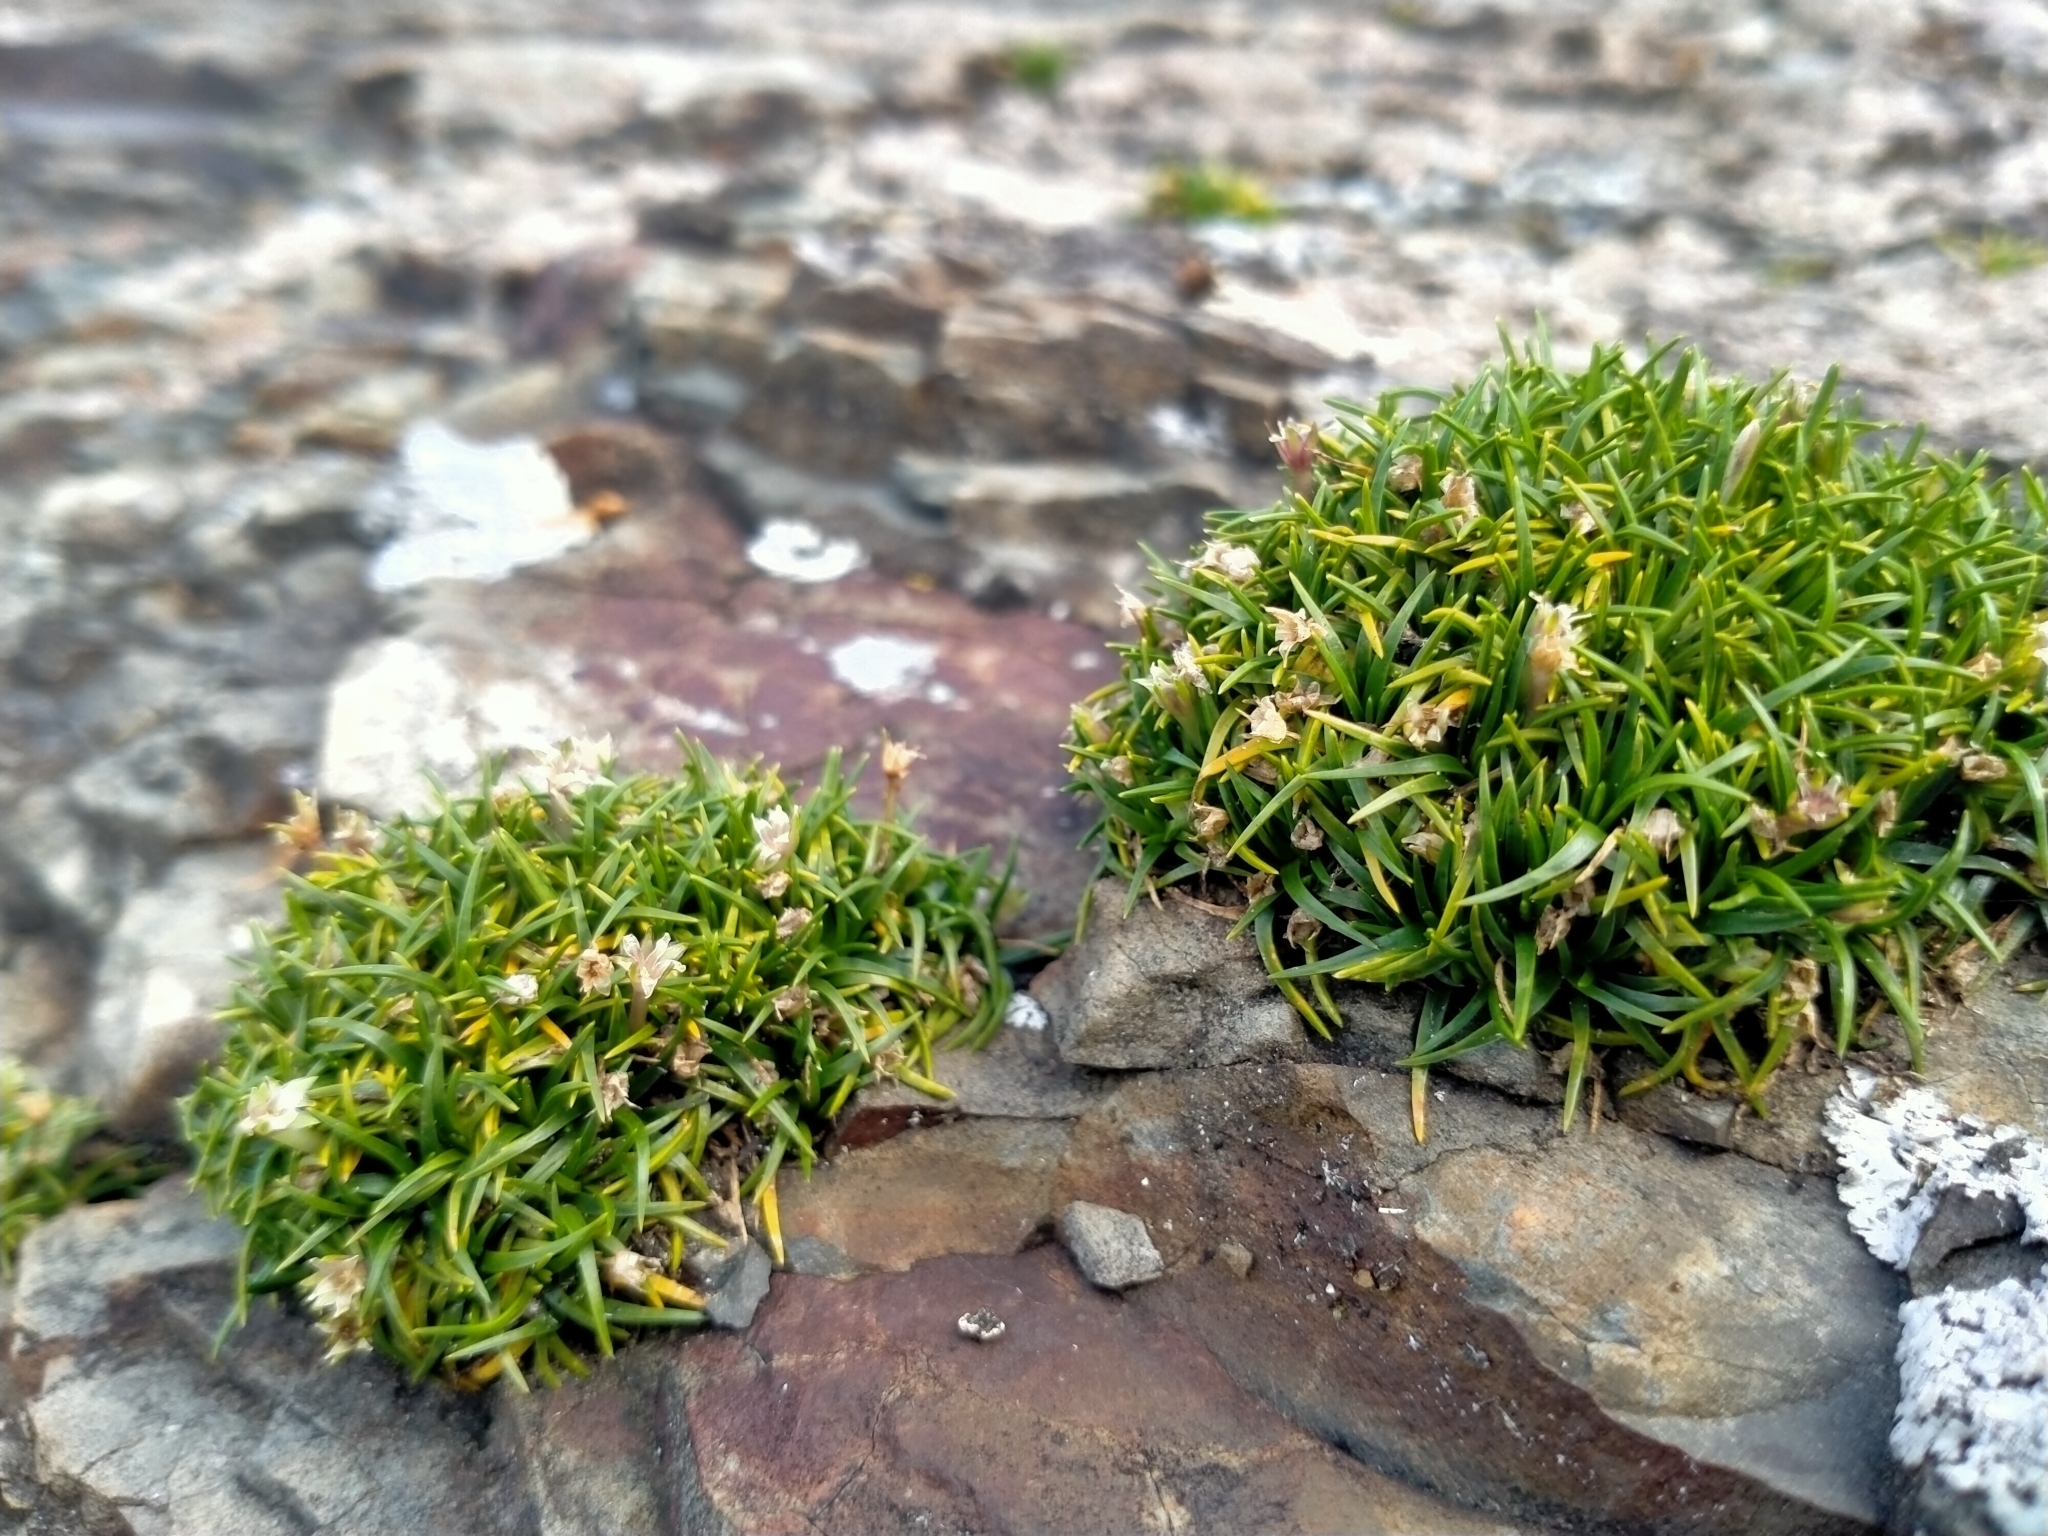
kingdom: Plantae
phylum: Tracheophyta
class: Magnoliopsida
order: Caryophyllales
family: Caryophyllaceae
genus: Colobanthus
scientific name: Colobanthus muelleri
